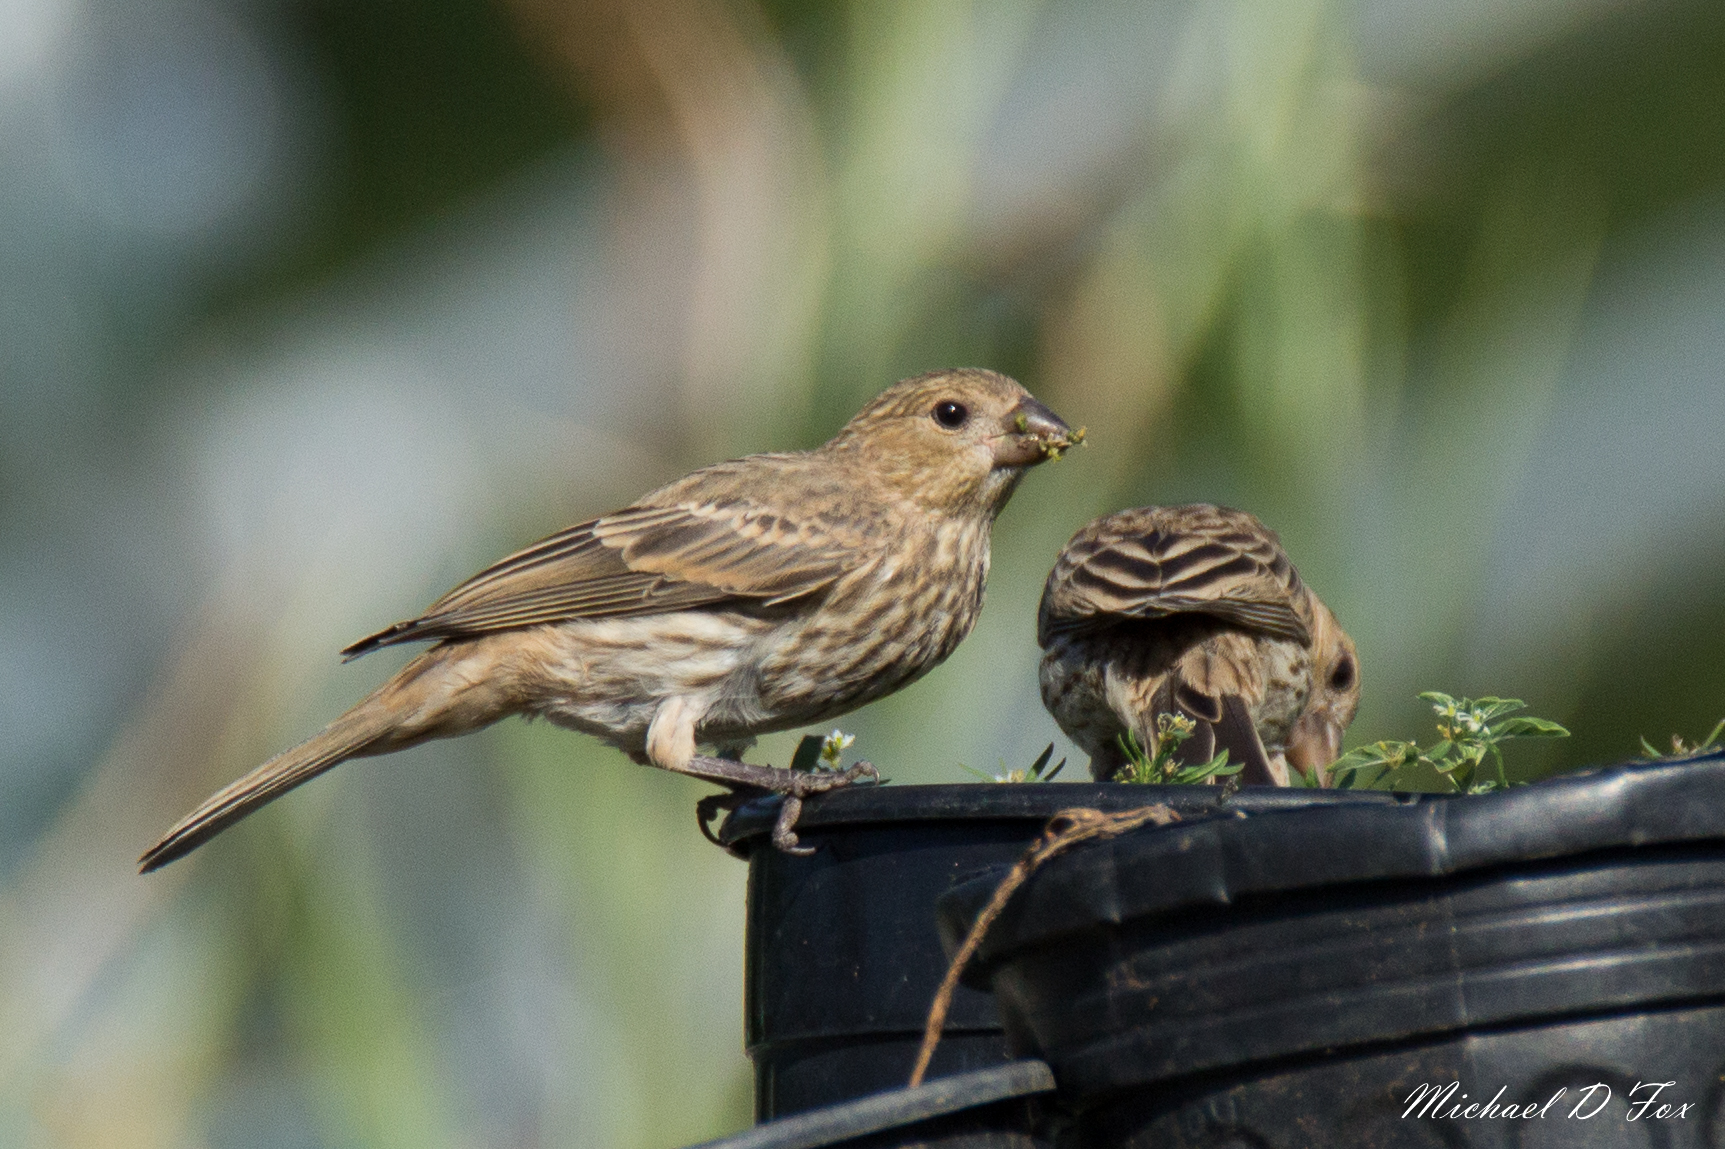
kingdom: Animalia
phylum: Chordata
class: Aves
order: Passeriformes
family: Fringillidae
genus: Haemorhous
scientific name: Haemorhous mexicanus
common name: House finch
